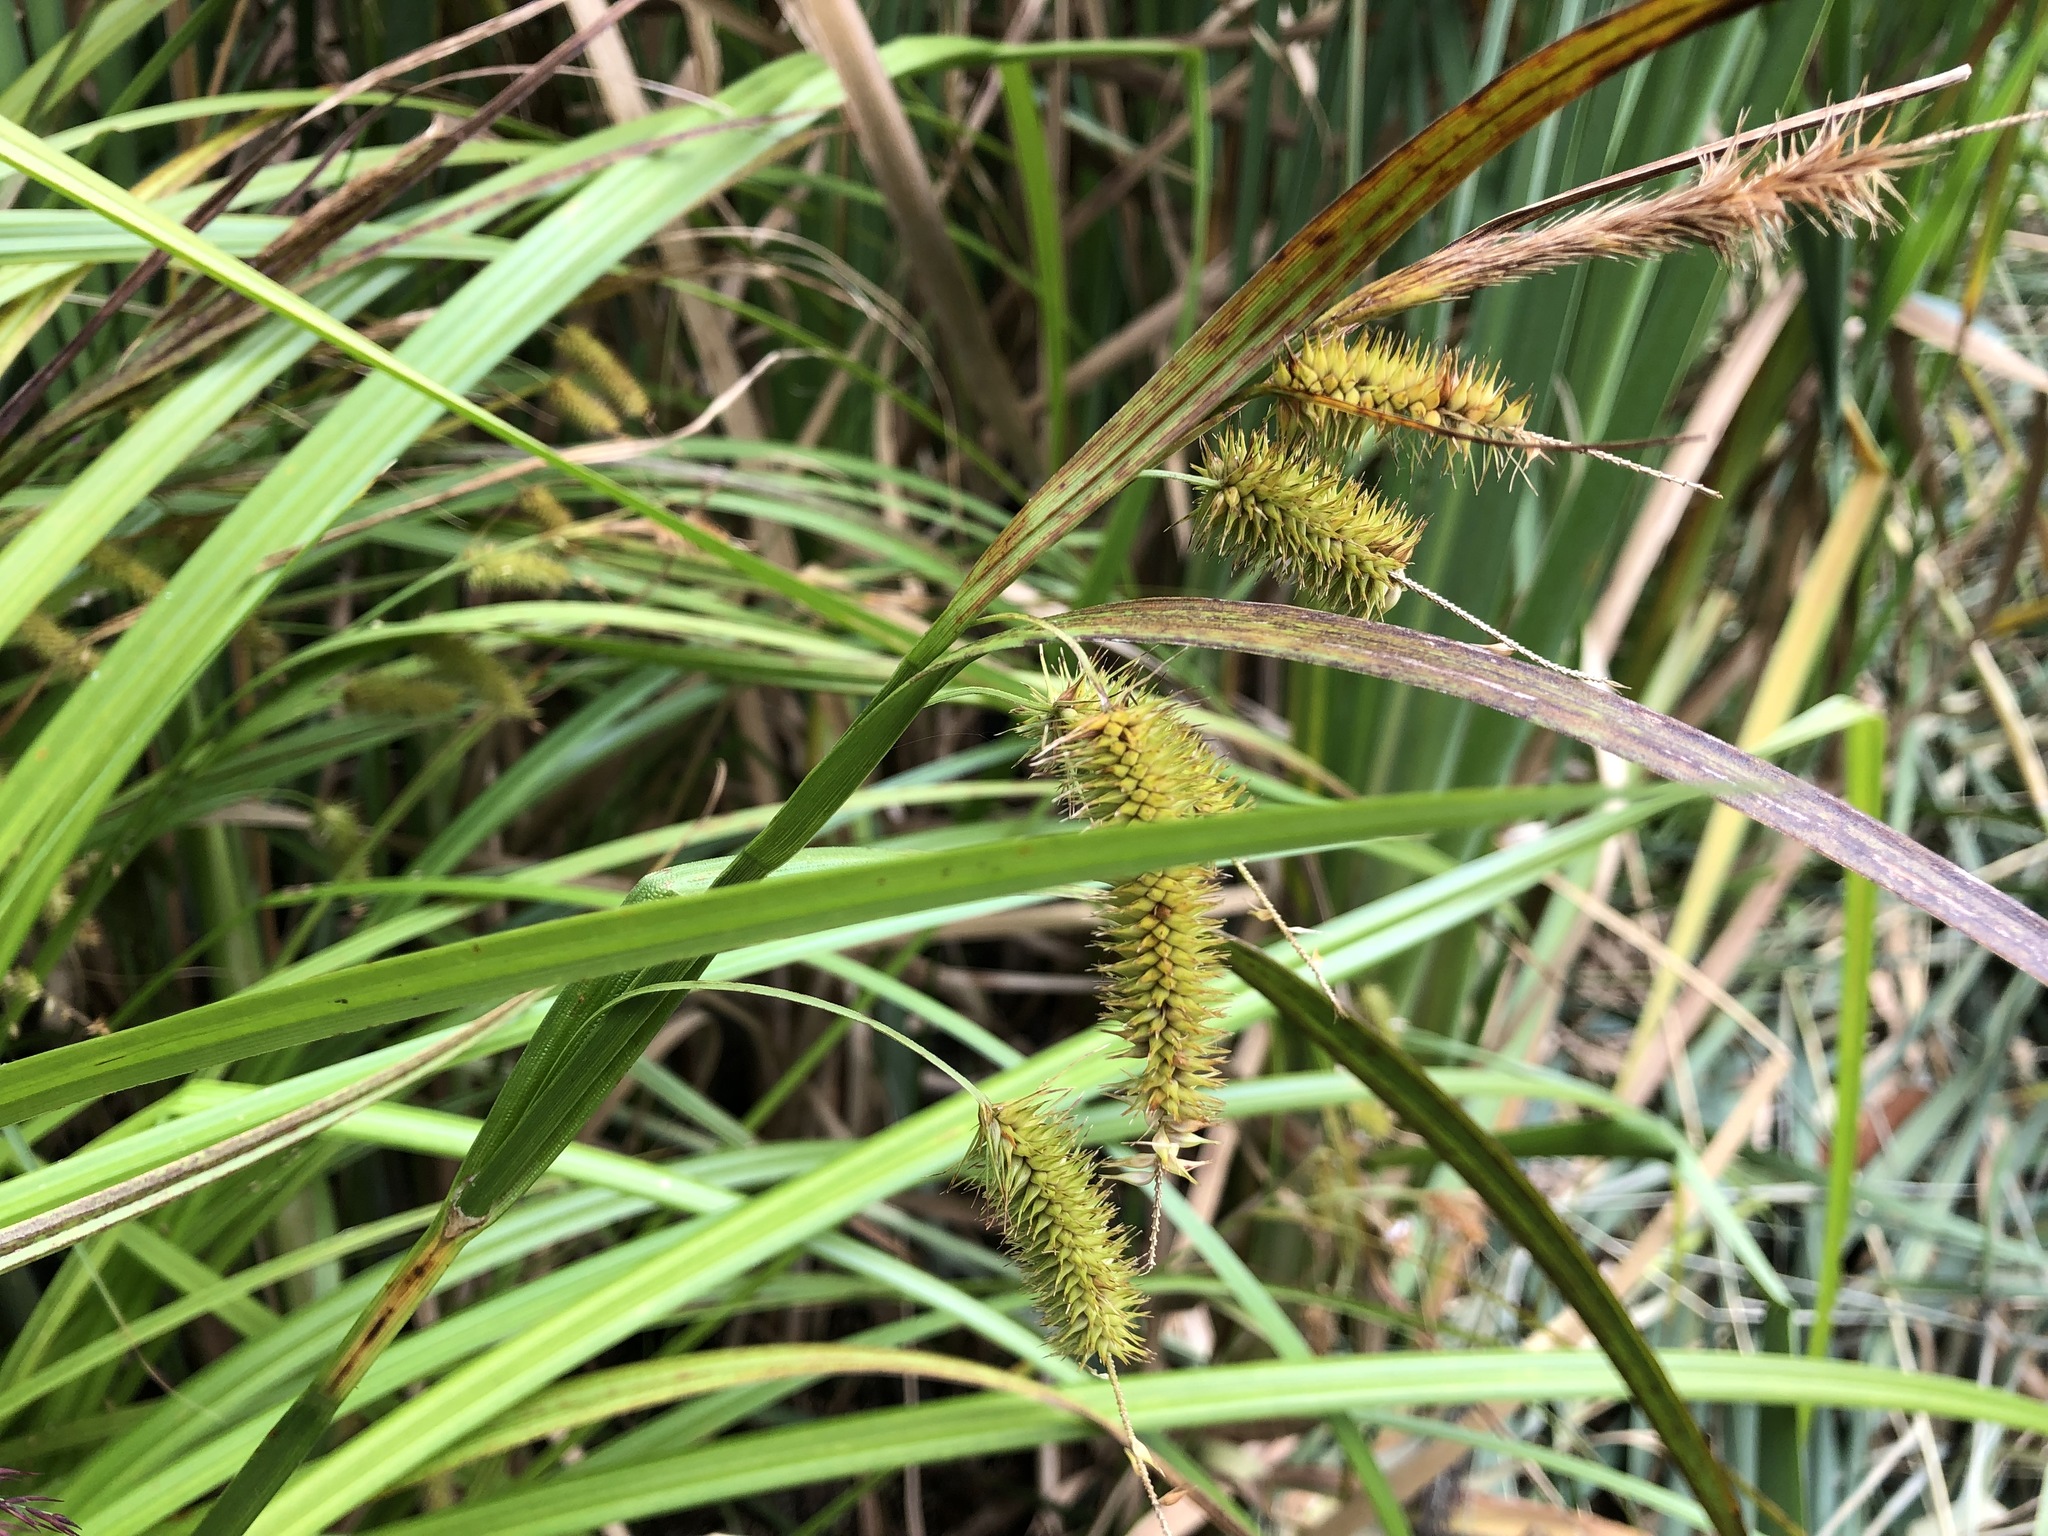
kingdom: Plantae
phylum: Tracheophyta
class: Liliopsida
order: Poales
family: Cyperaceae
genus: Carex
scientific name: Carex pseudocyperus
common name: Cyperus sedge
